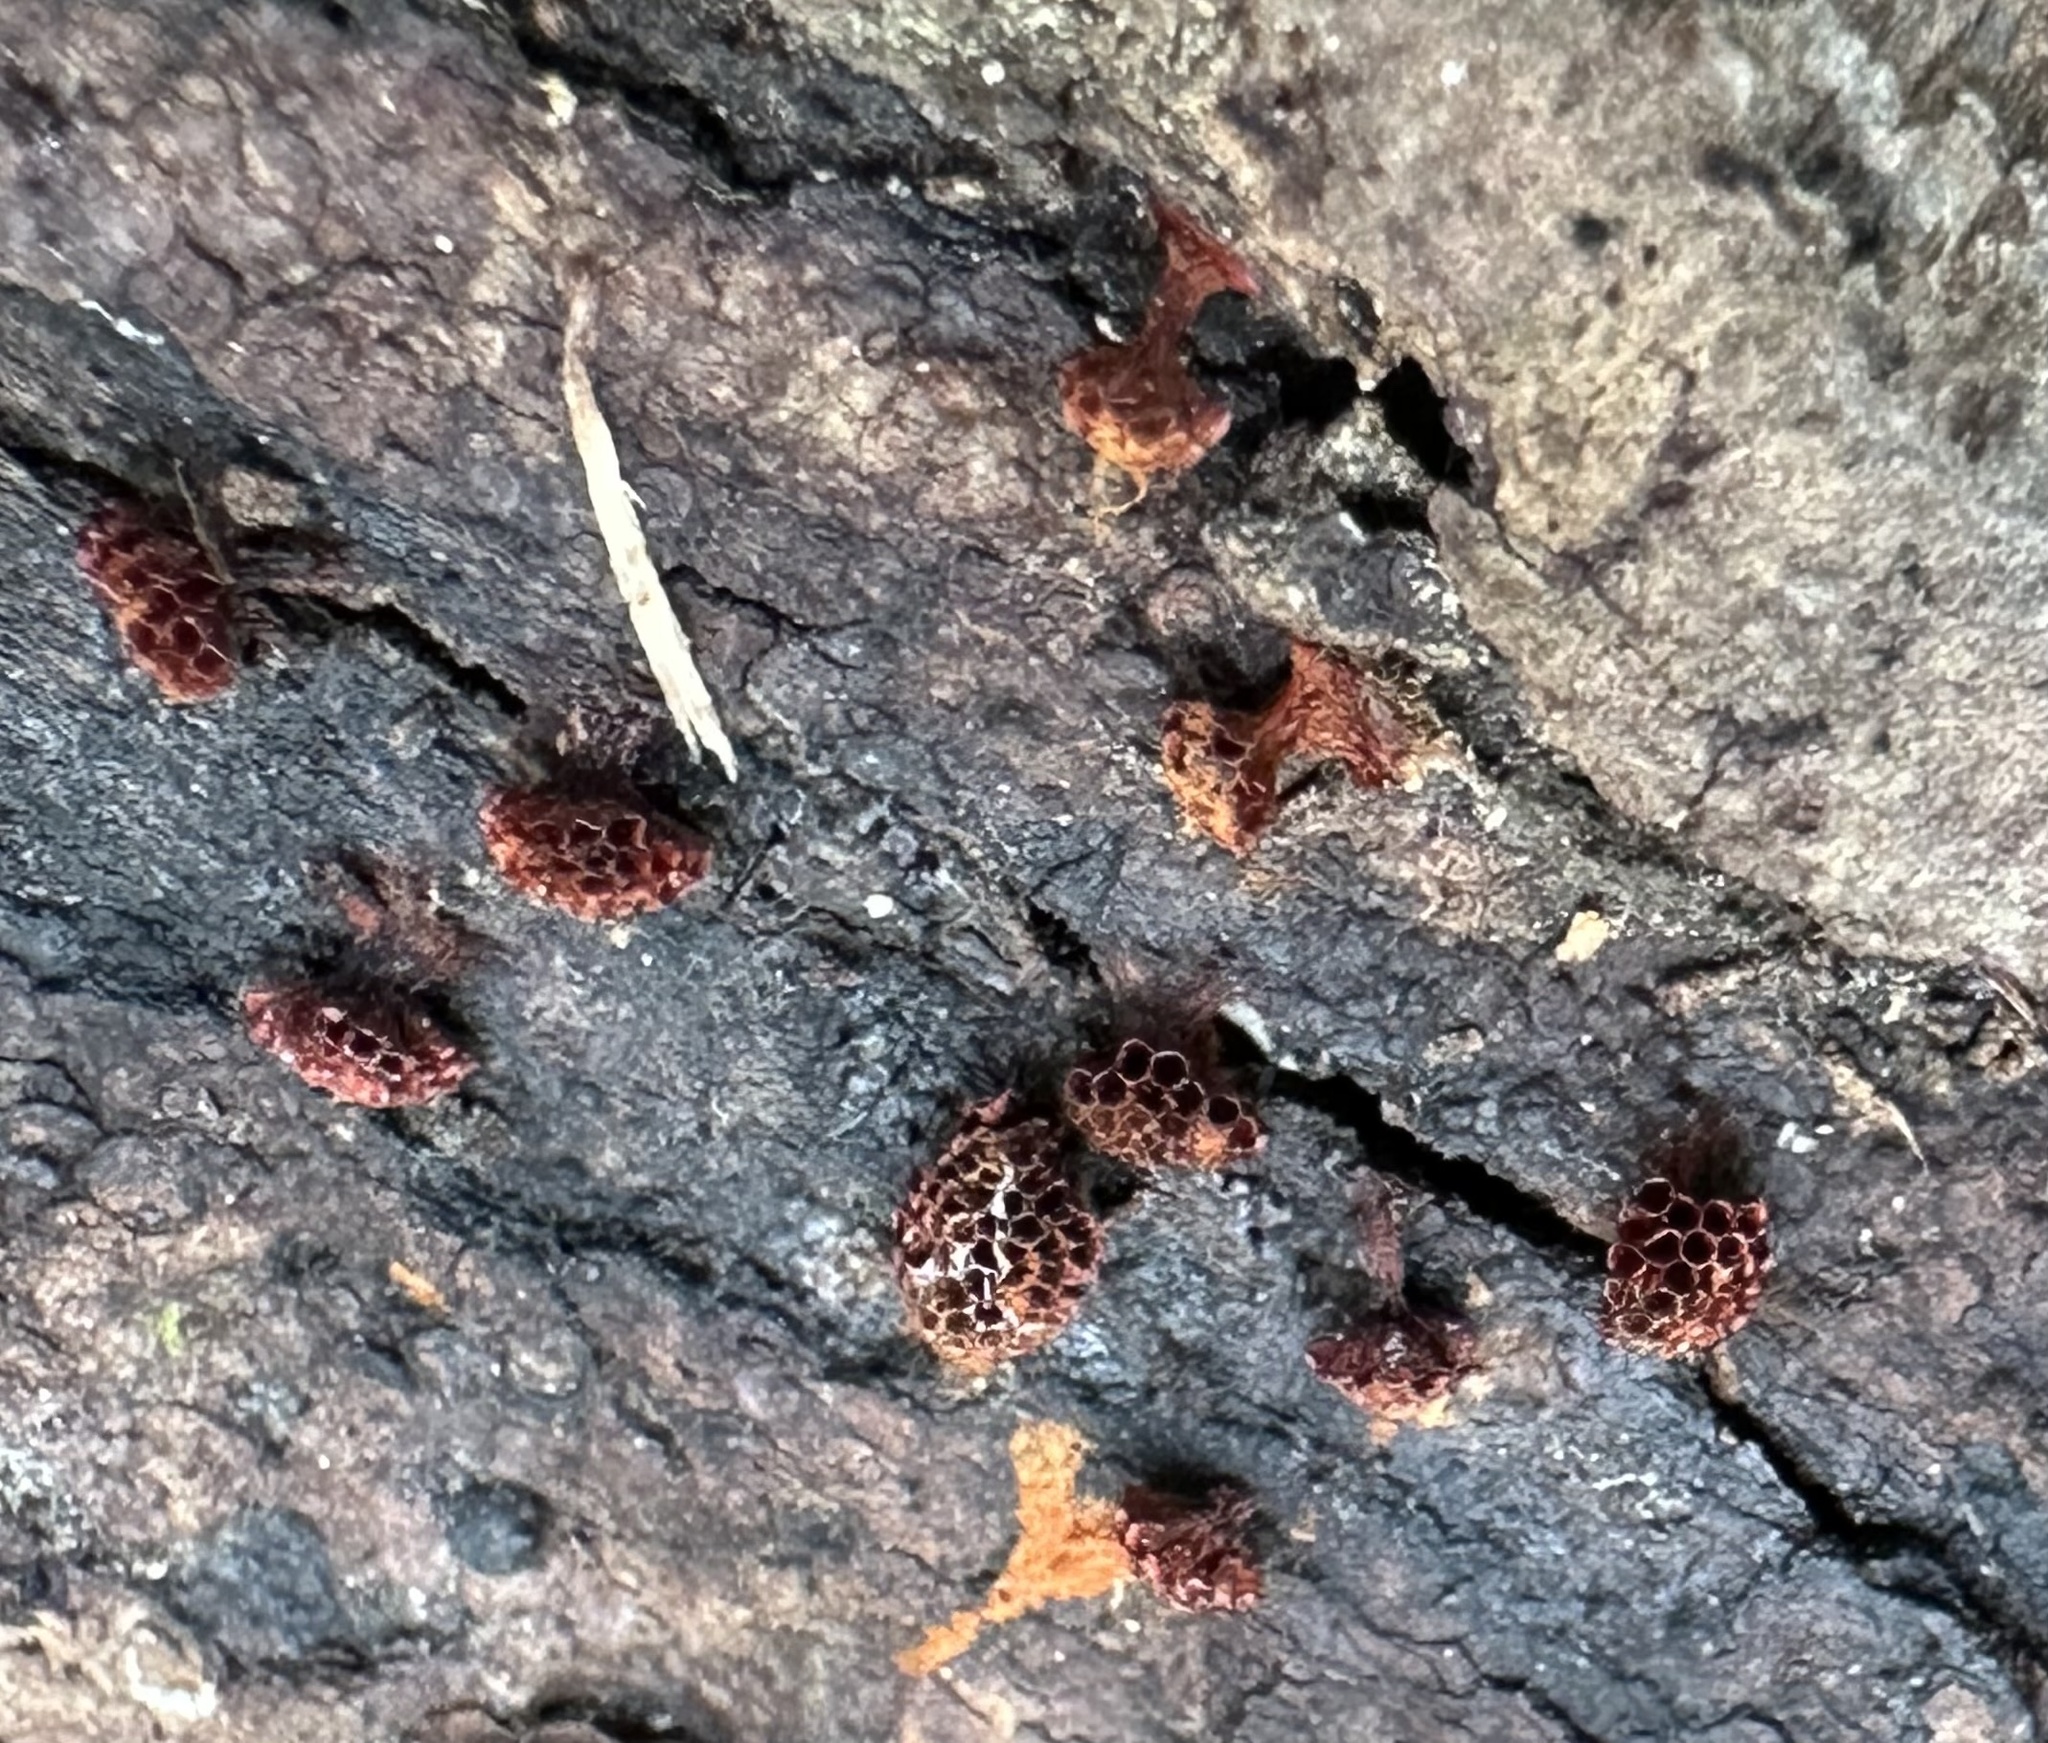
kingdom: Protozoa
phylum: Mycetozoa
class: Myxomycetes
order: Trichiales
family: Trichiaceae
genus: Metatrichia
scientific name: Metatrichia vesparia
